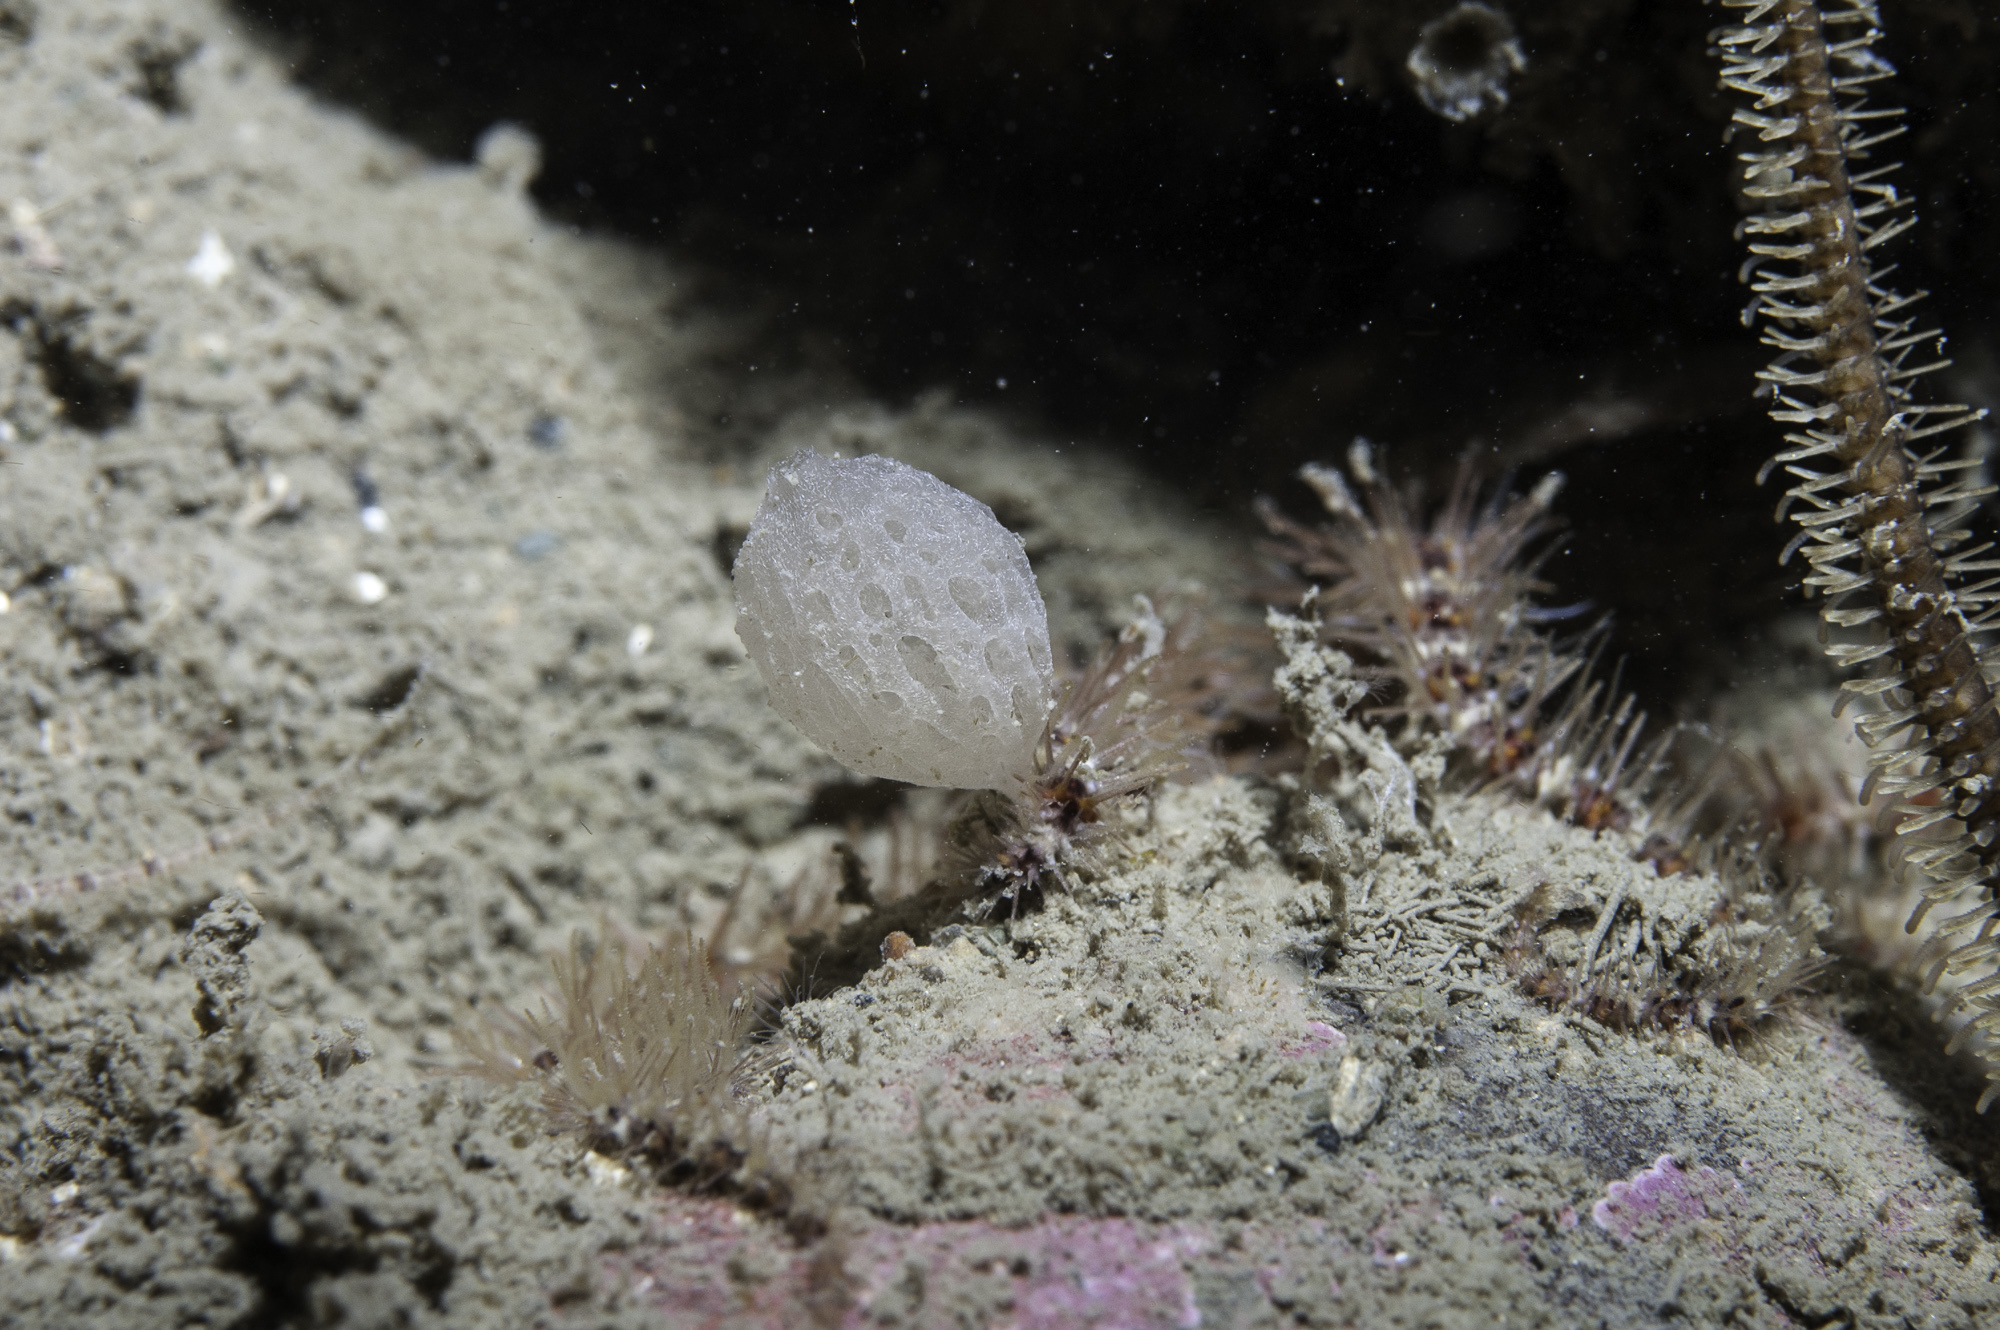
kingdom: Animalia
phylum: Porifera
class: Calcarea
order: Clathrinida
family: Clathrinidae
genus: Clathrina
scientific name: Clathrina lacunosa
